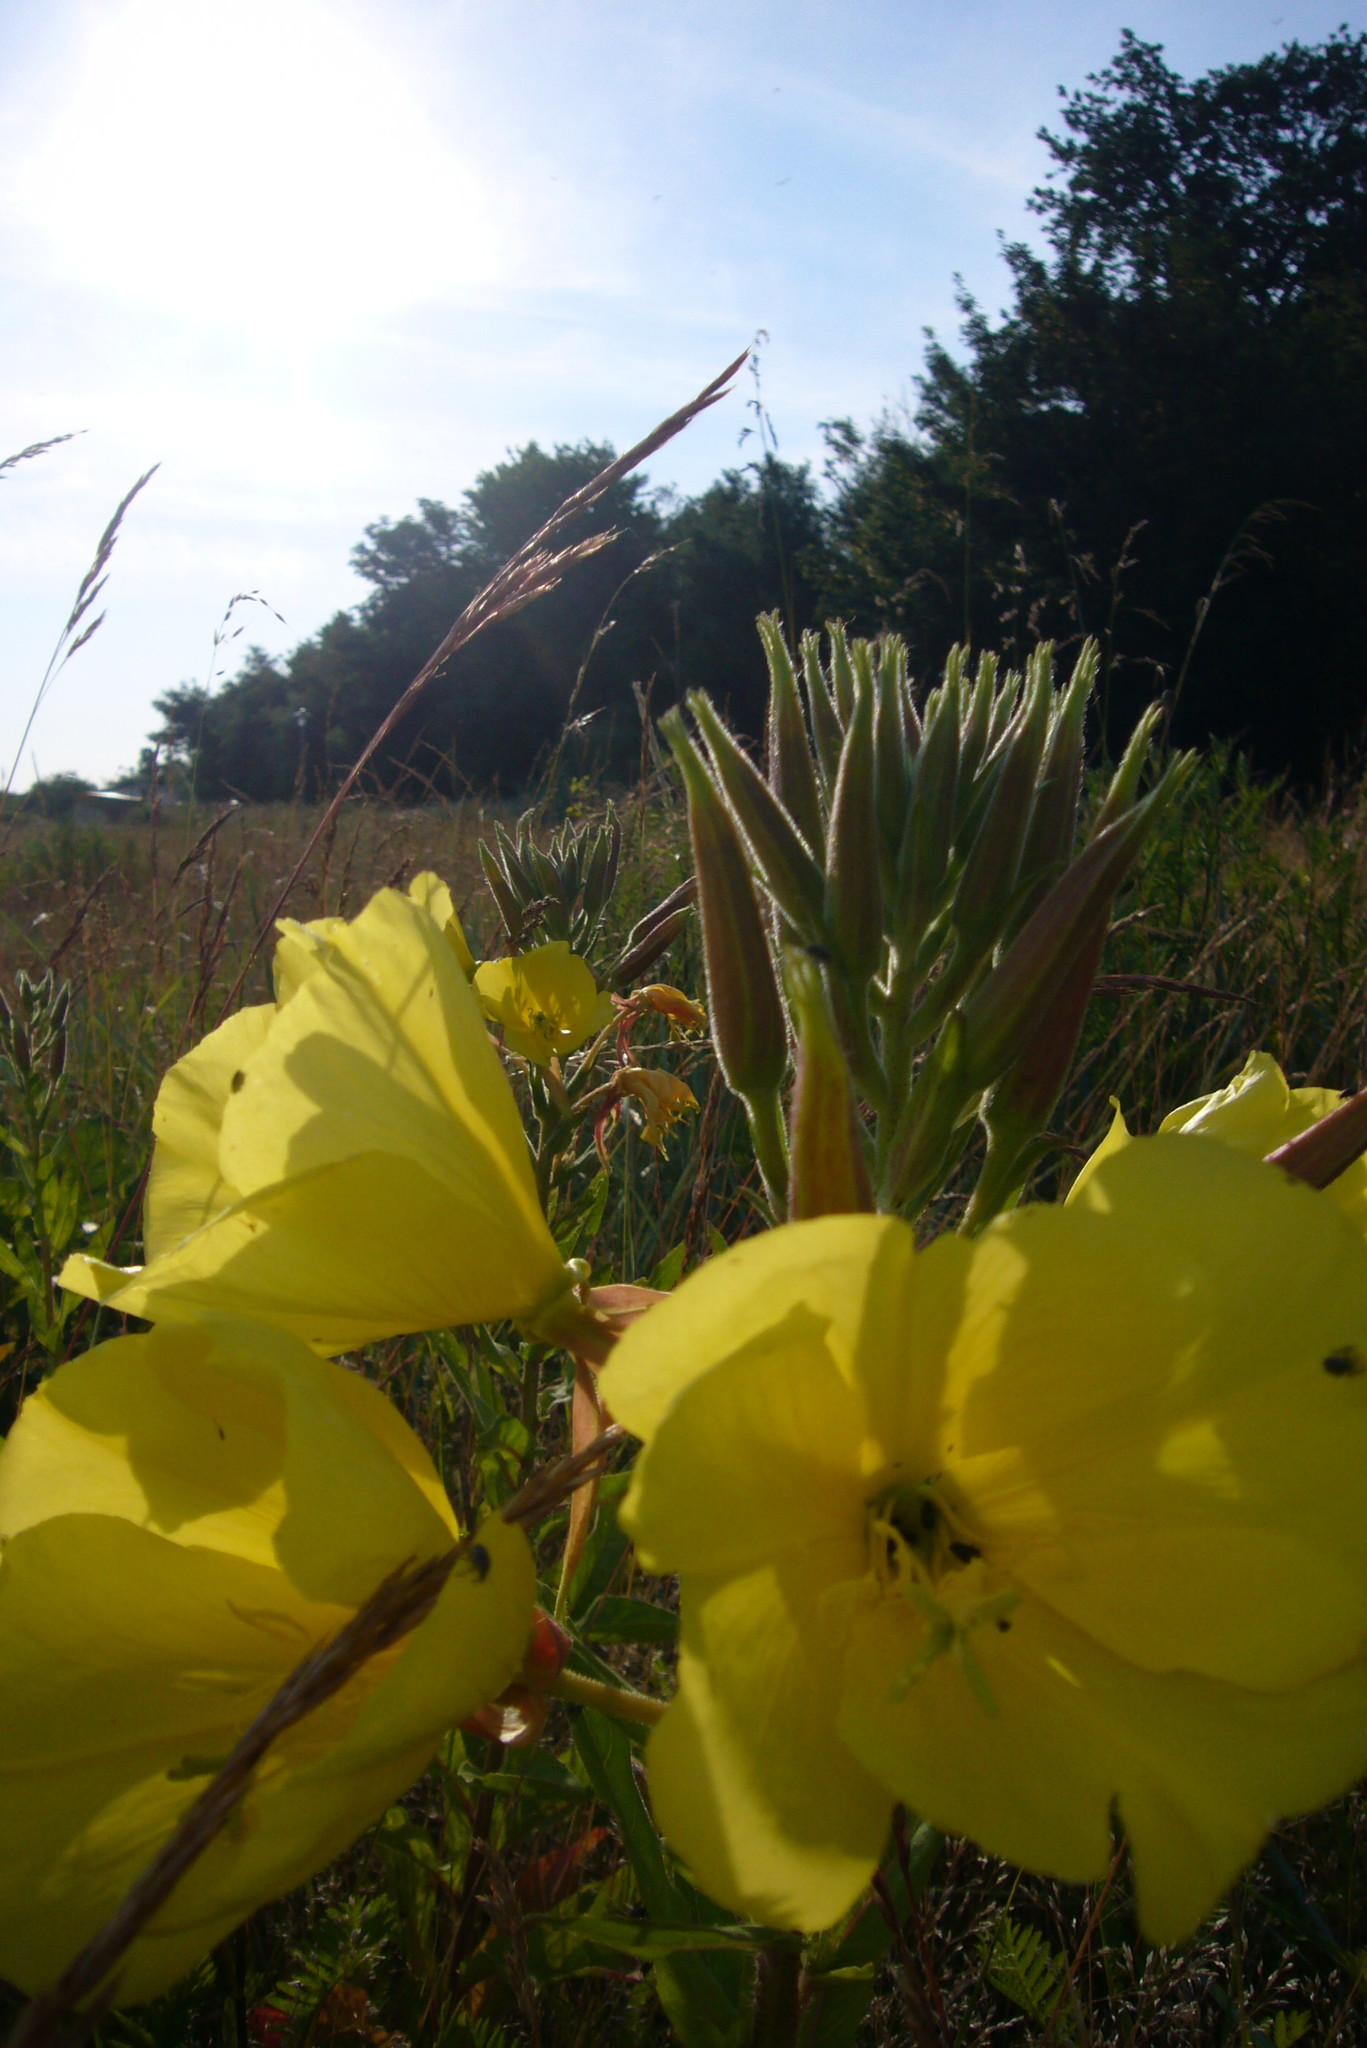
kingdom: Plantae
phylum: Tracheophyta
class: Magnoliopsida
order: Myrtales
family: Onagraceae
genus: Oenothera
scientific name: Oenothera glazioviana
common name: Large-flowered evening-primrose
